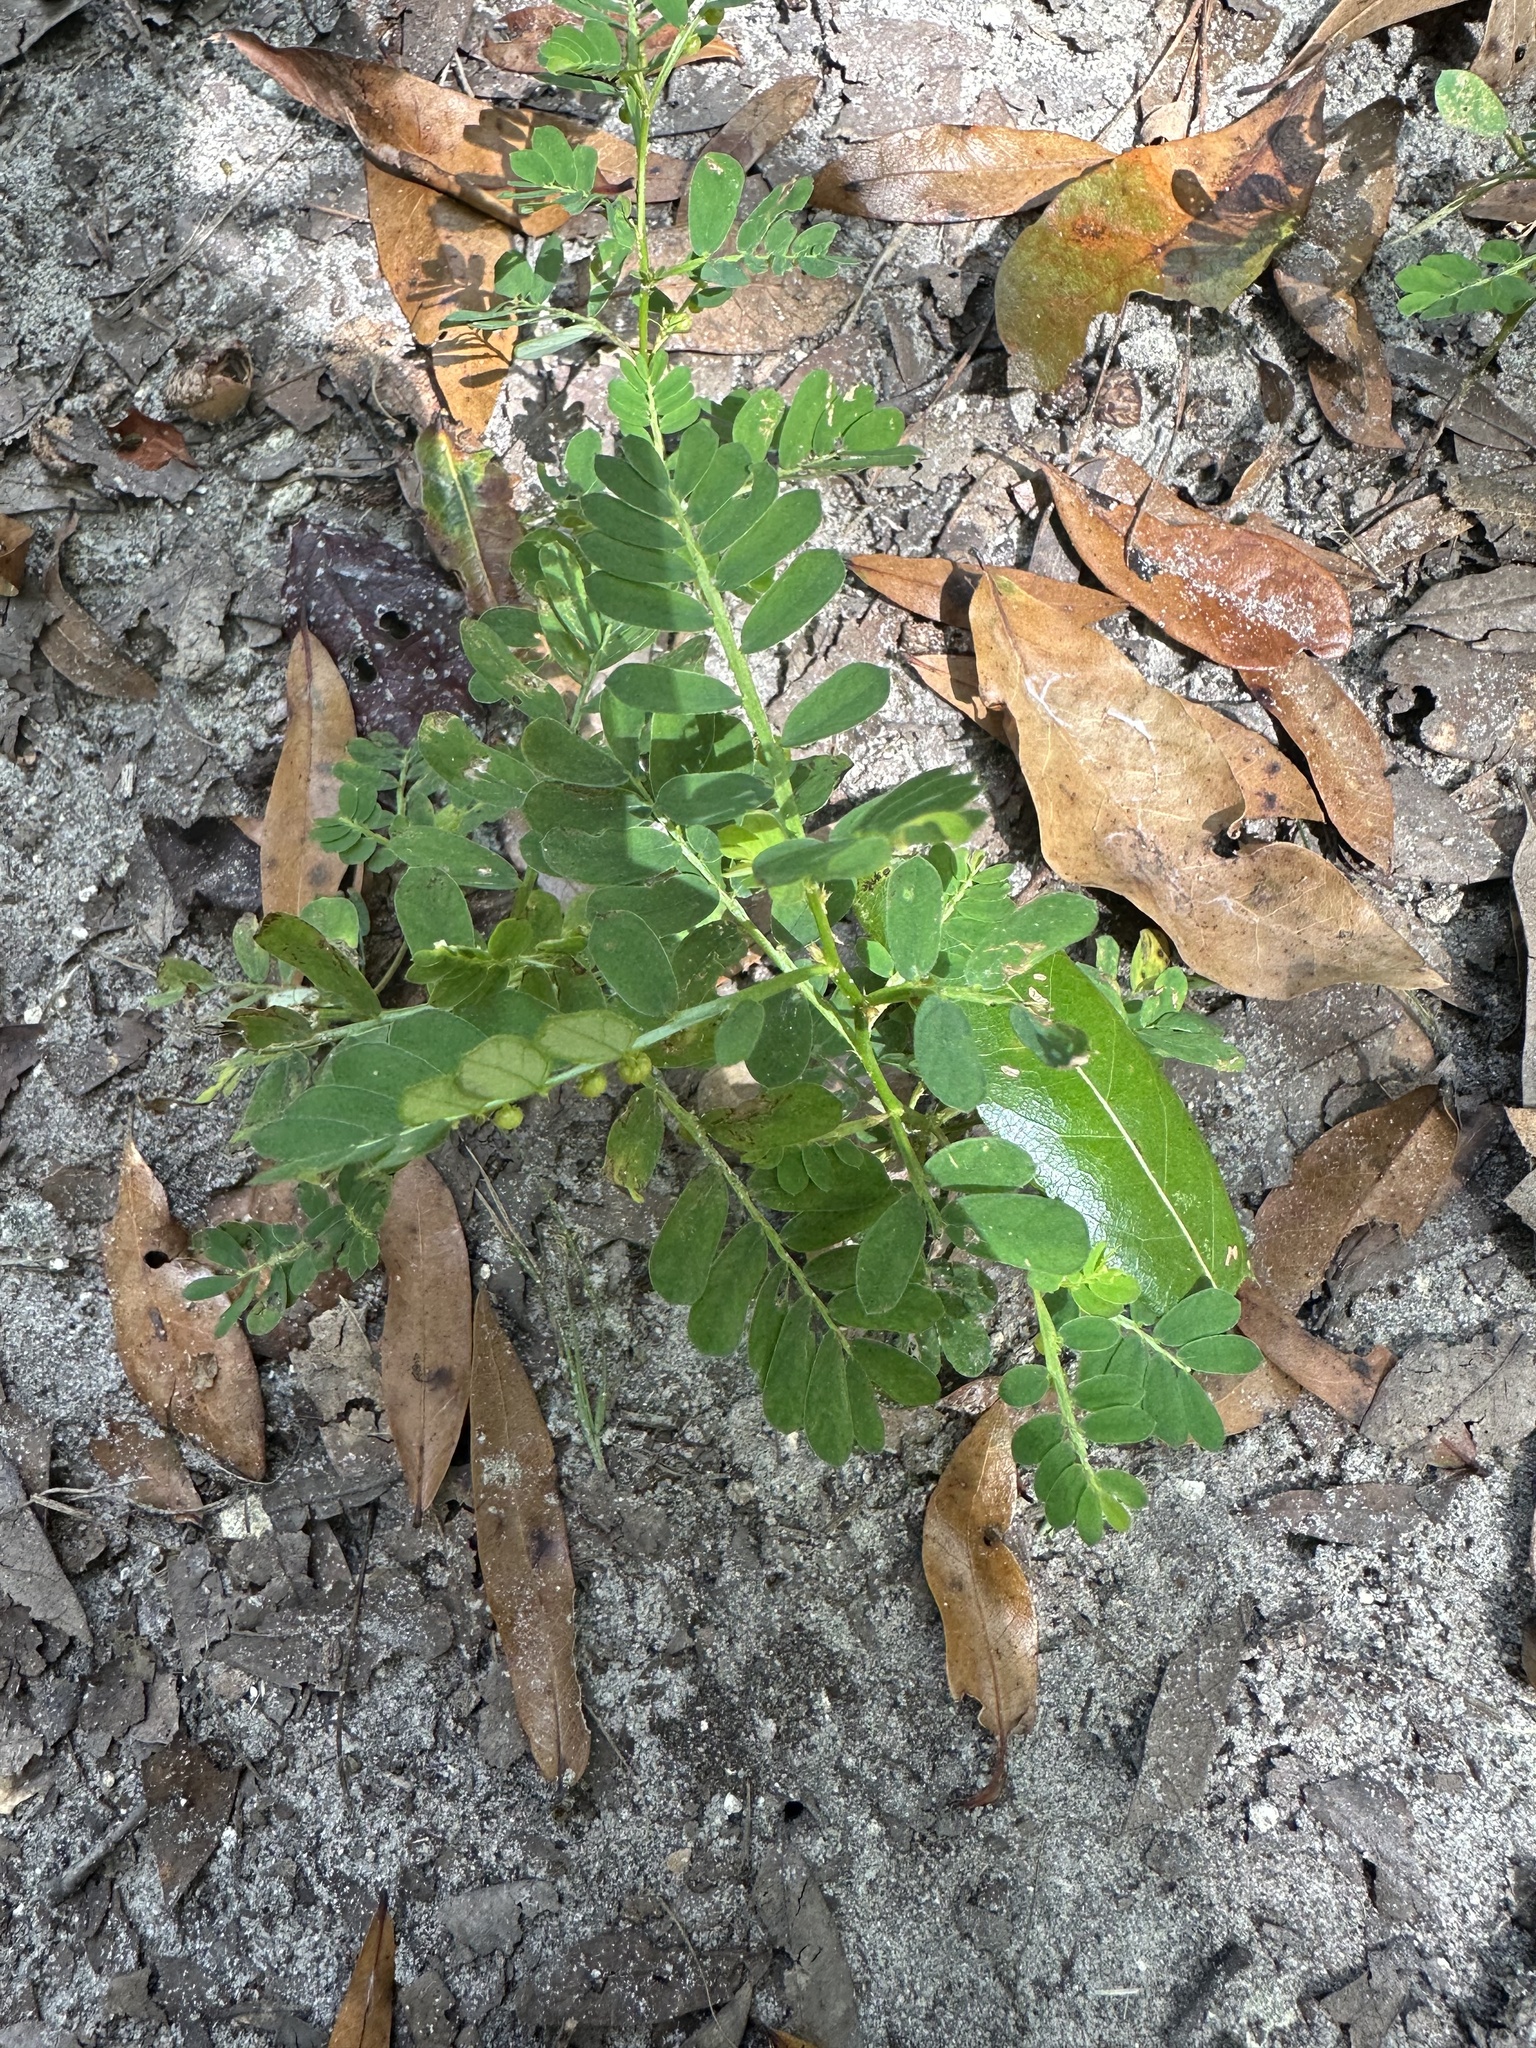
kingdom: Plantae
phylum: Tracheophyta
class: Magnoliopsida
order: Malpighiales
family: Phyllanthaceae
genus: Phyllanthus
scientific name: Phyllanthus urinaria
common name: Chamber bitter
